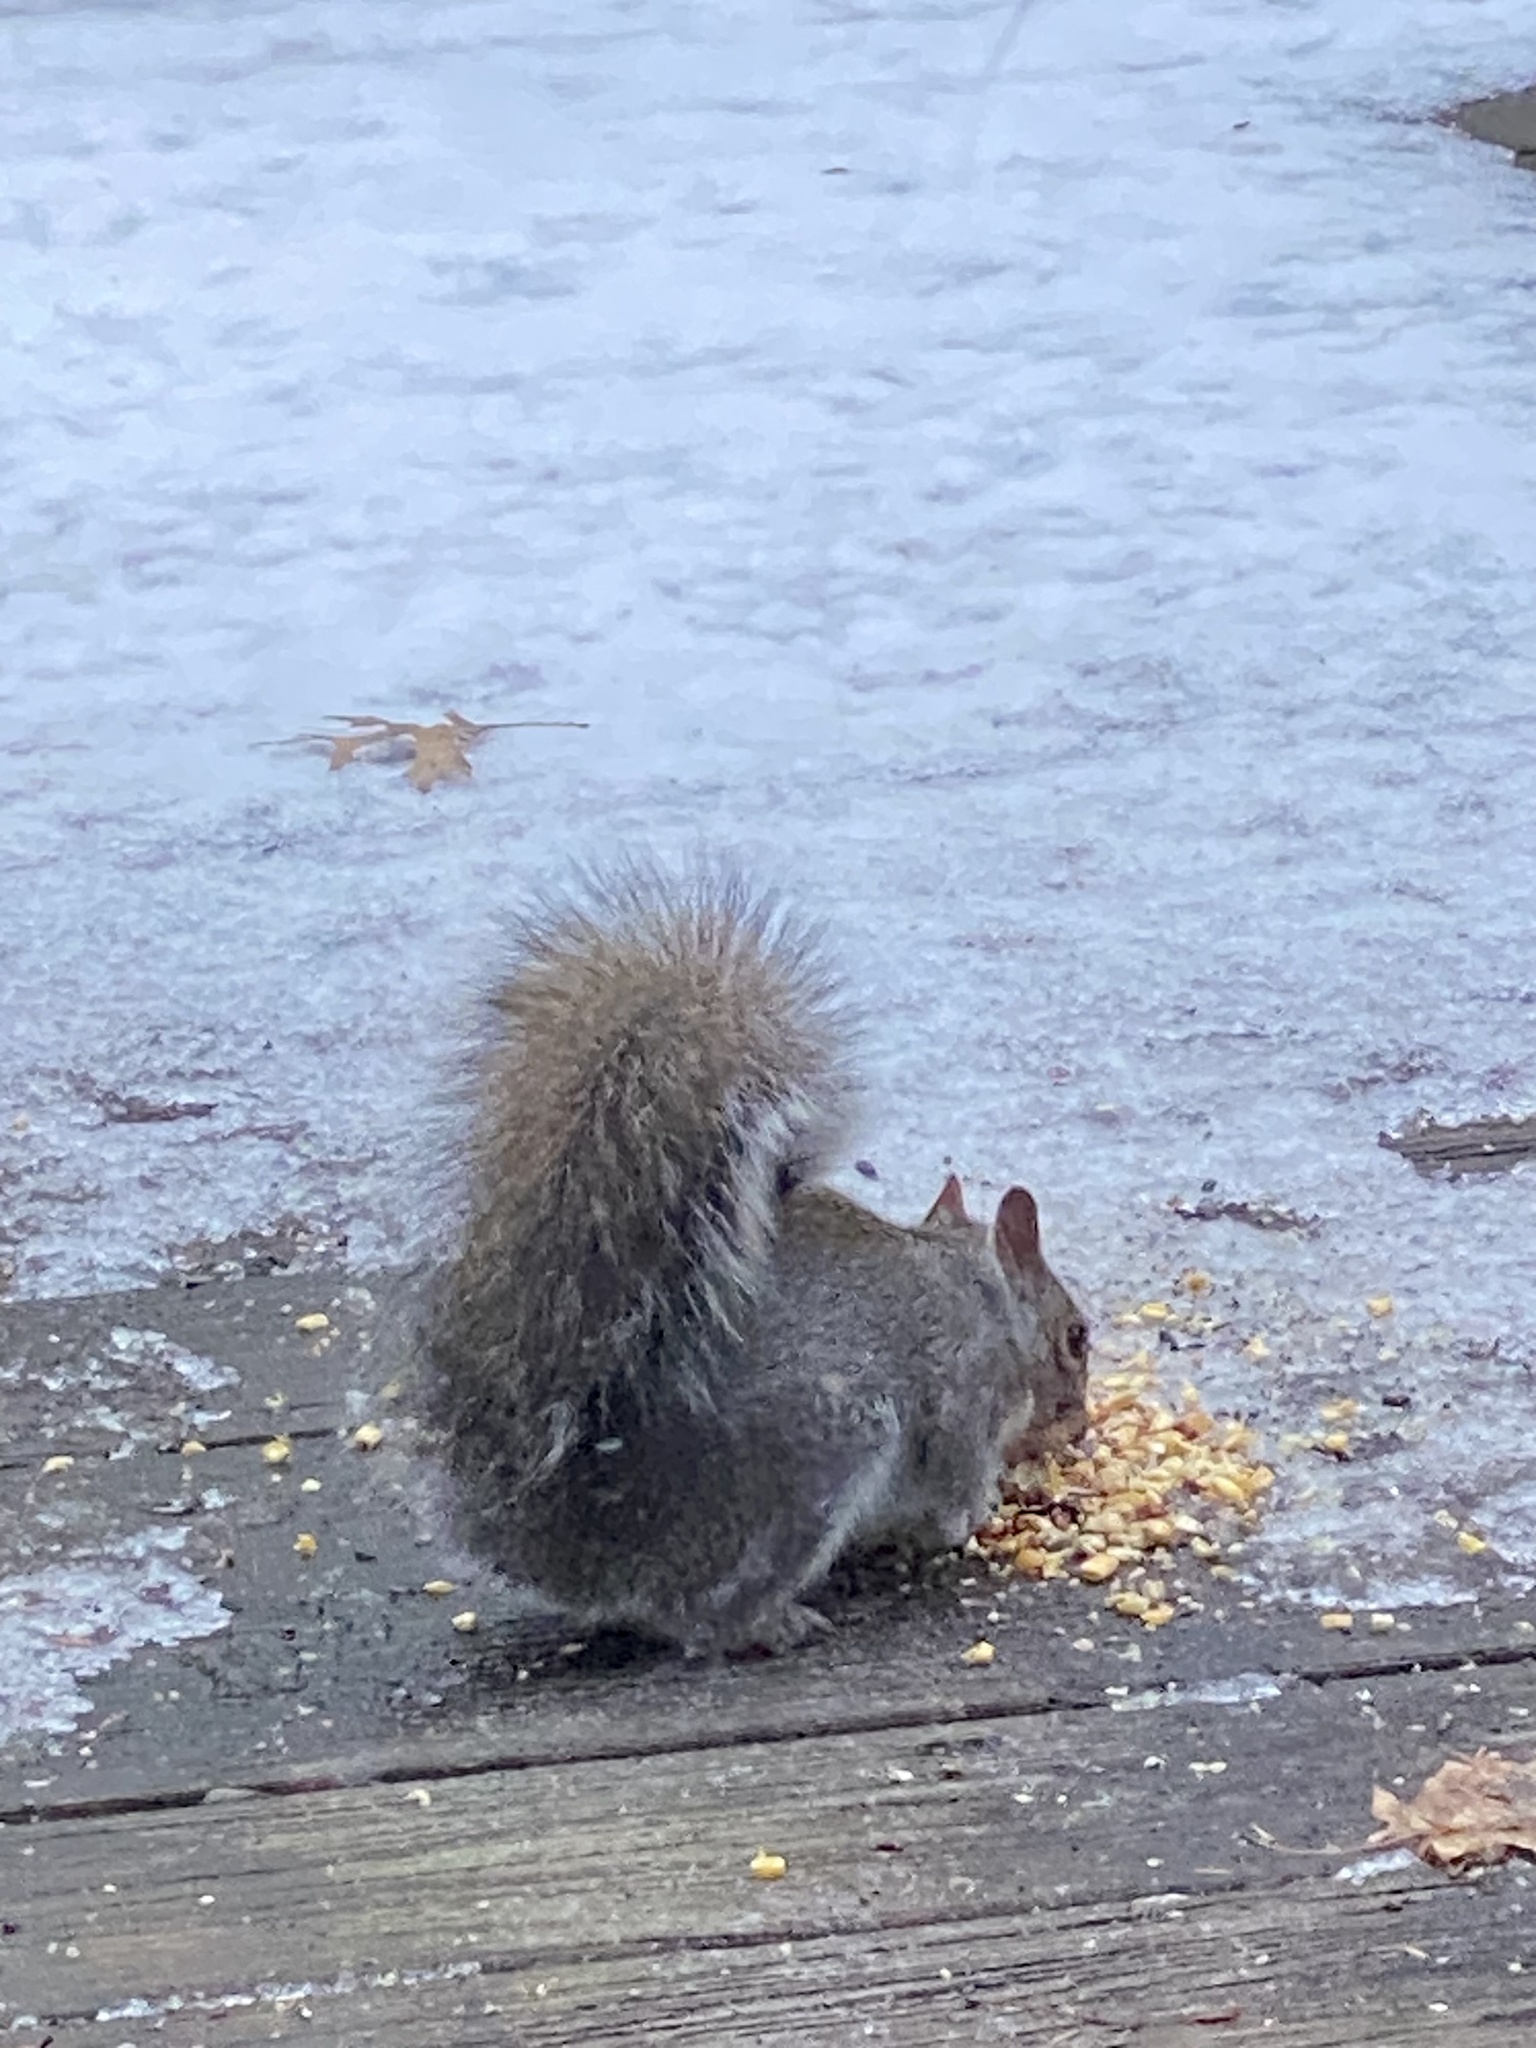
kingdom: Animalia
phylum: Chordata
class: Mammalia
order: Rodentia
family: Sciuridae
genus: Sciurus
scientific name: Sciurus carolinensis
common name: Eastern gray squirrel
